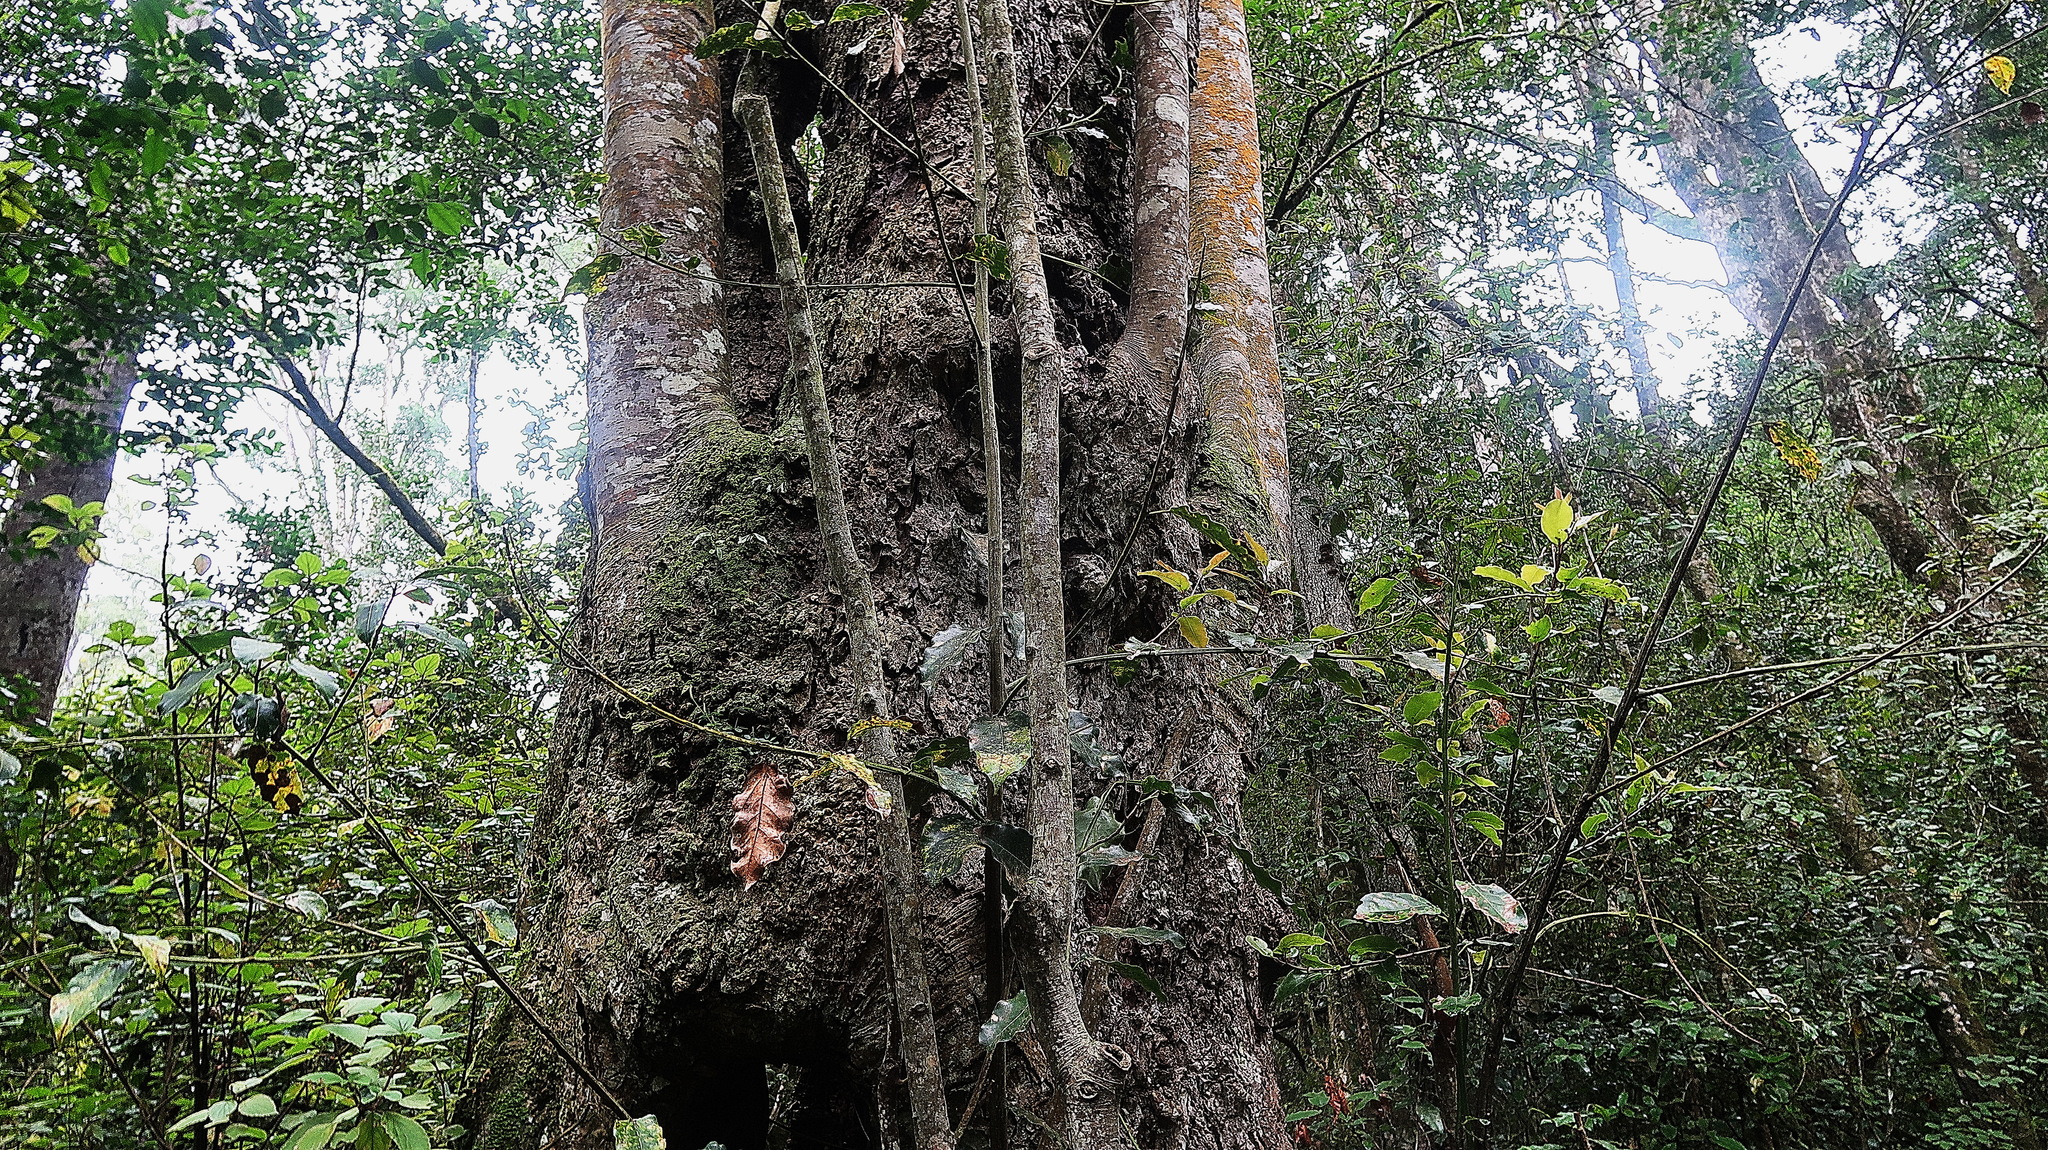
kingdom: Plantae
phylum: Tracheophyta
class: Magnoliopsida
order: Laurales
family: Lauraceae
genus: Ocotea
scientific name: Ocotea bullata
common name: Black stinkwood
